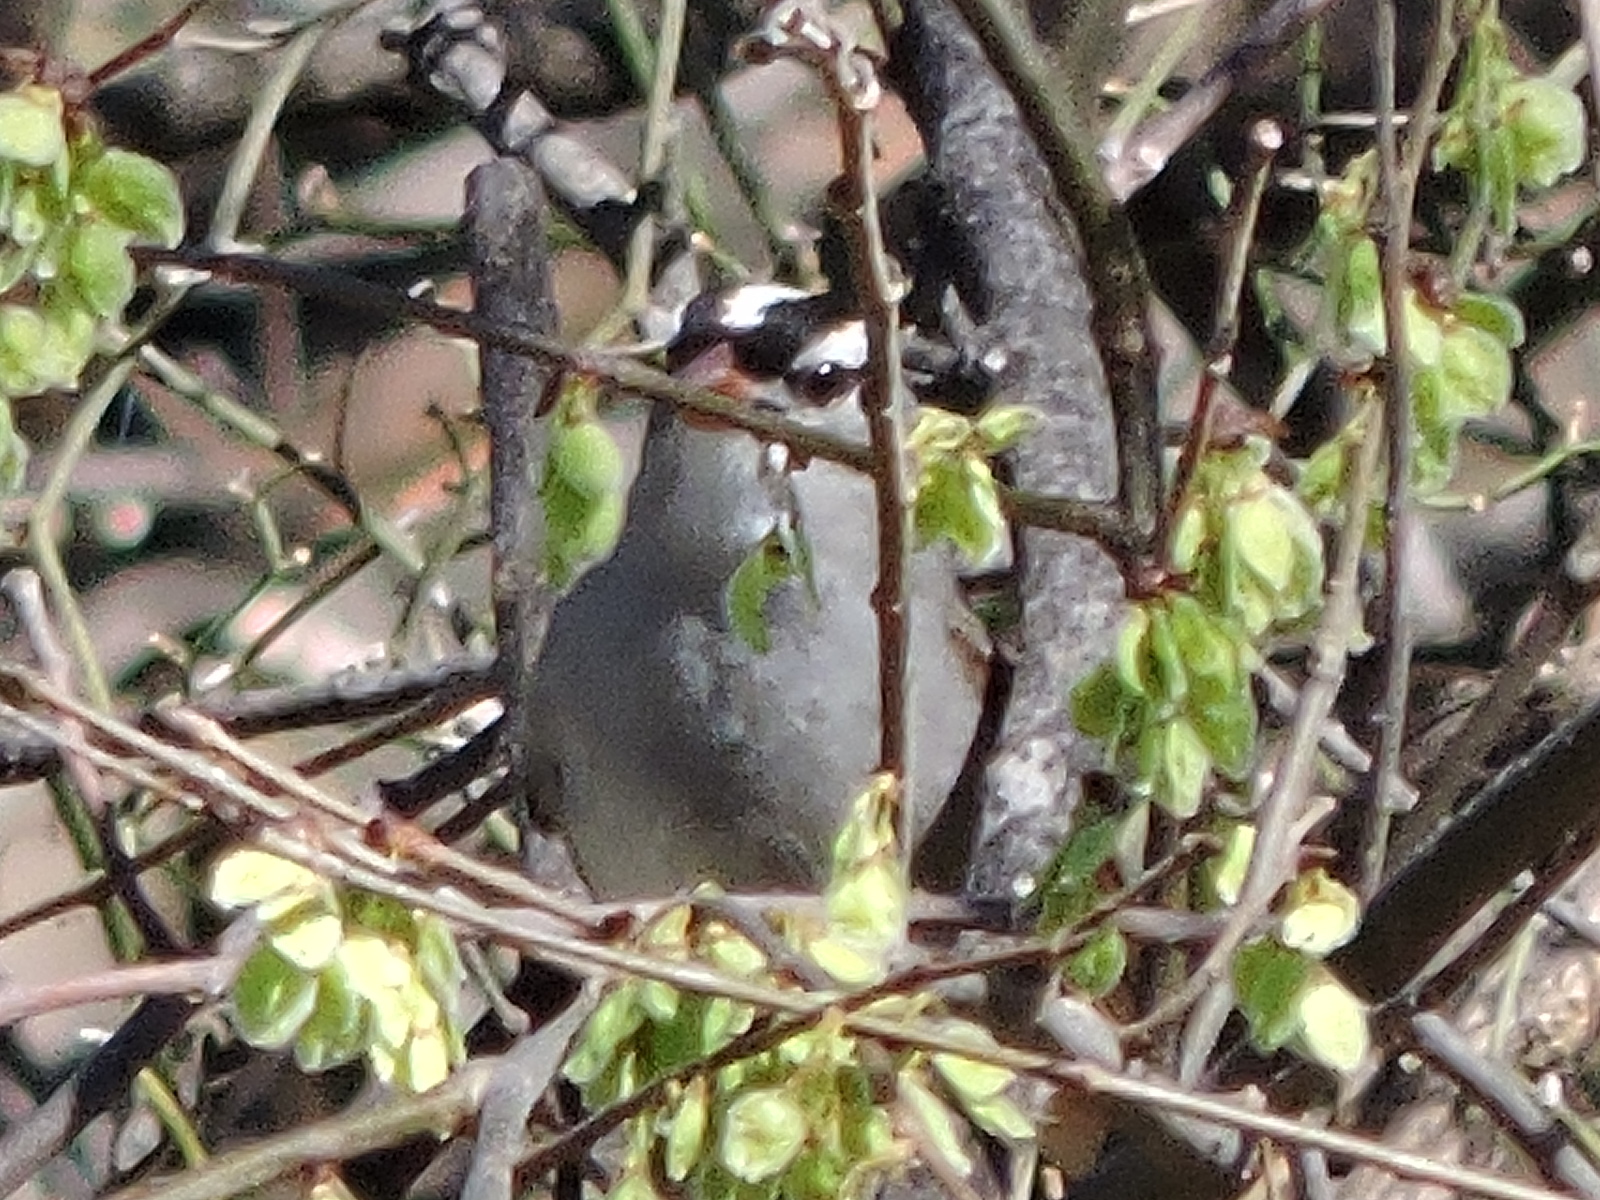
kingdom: Animalia
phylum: Chordata
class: Aves
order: Passeriformes
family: Passerellidae
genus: Zonotrichia
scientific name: Zonotrichia leucophrys
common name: White-crowned sparrow
